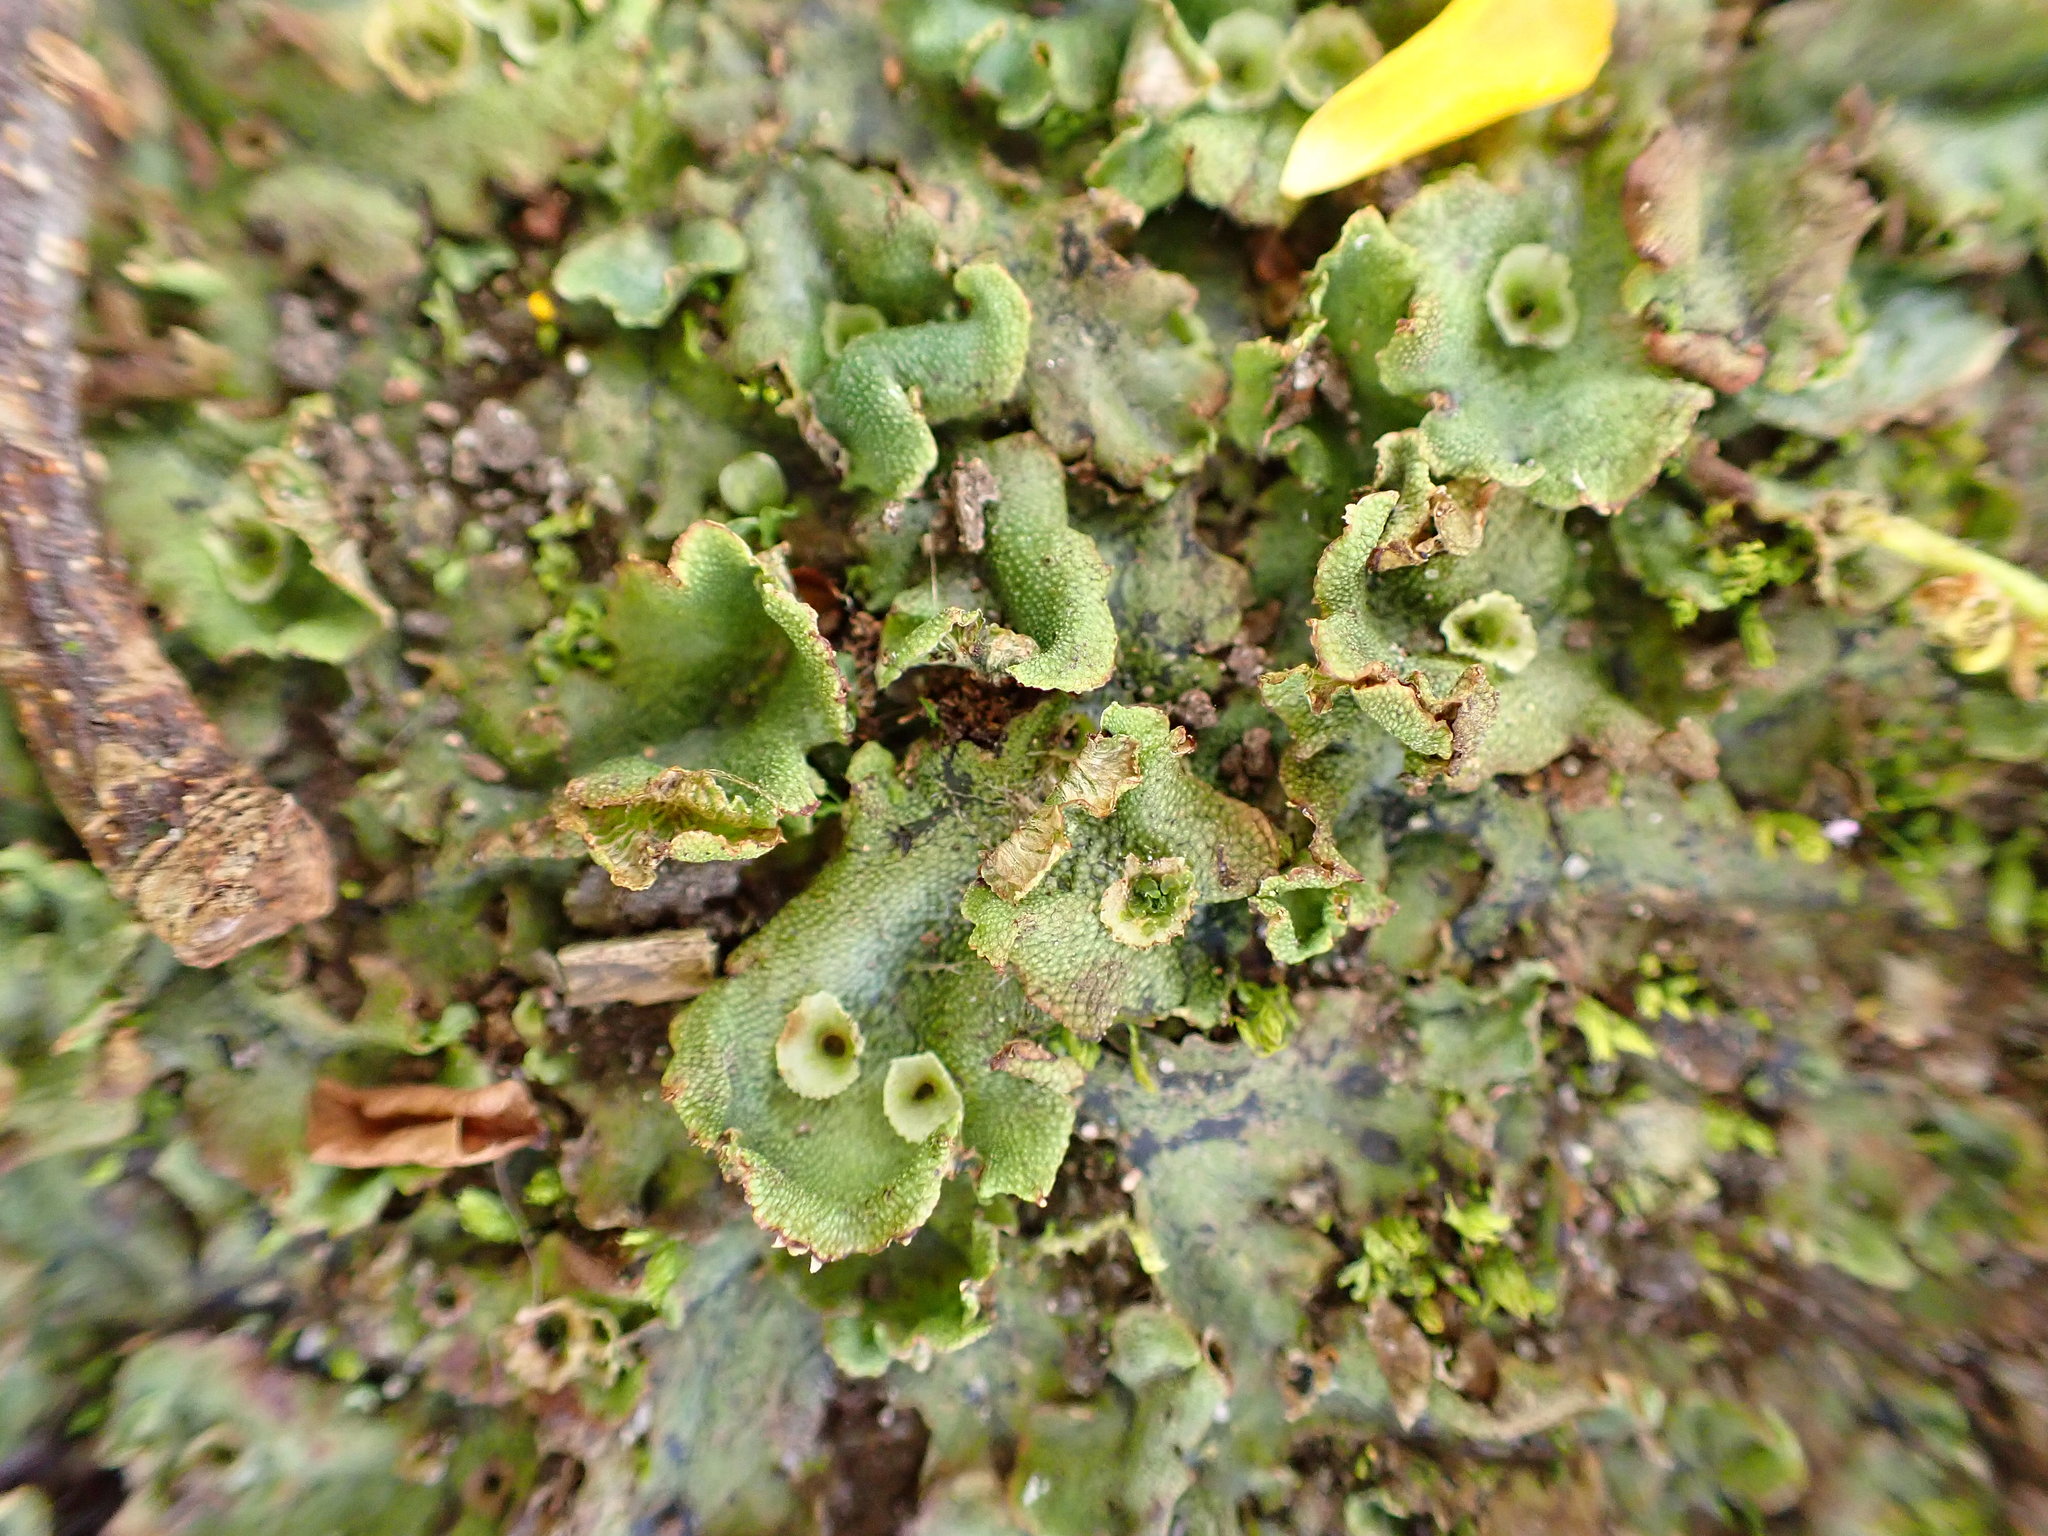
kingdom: Plantae
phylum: Marchantiophyta
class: Marchantiopsida
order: Marchantiales
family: Marchantiaceae
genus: Marchantia
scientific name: Marchantia polymorpha
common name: Common liverwort
